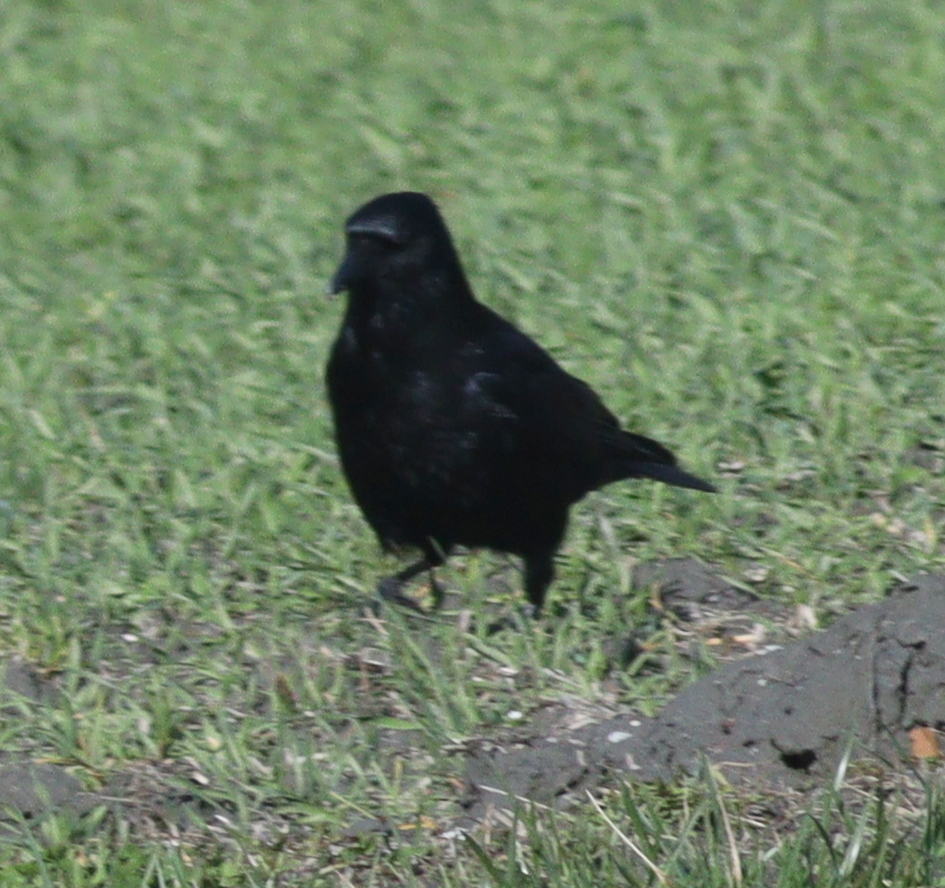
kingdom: Animalia
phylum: Chordata
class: Aves
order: Passeriformes
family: Corvidae
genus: Corvus
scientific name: Corvus corone
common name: Carrion crow
